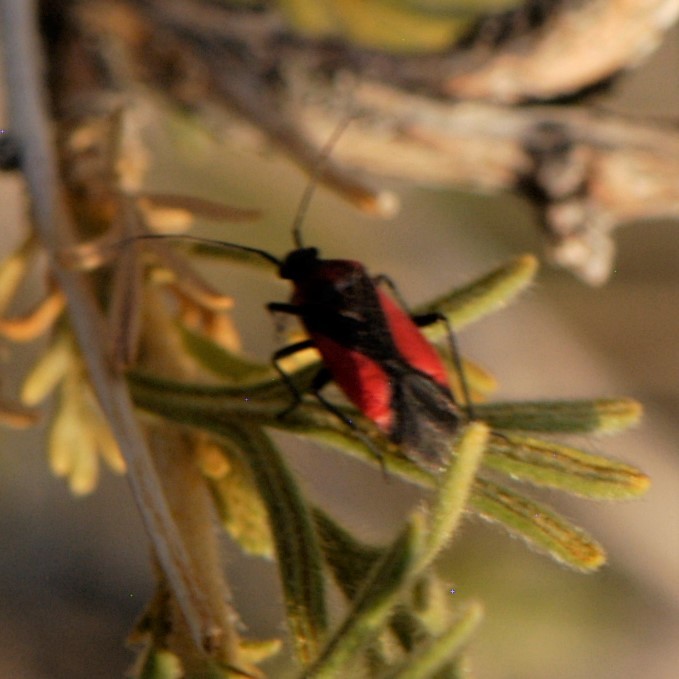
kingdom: Animalia
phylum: Arthropoda
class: Insecta
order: Hemiptera
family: Miridae
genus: Oncerometopus
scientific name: Oncerometopus atriscutis
